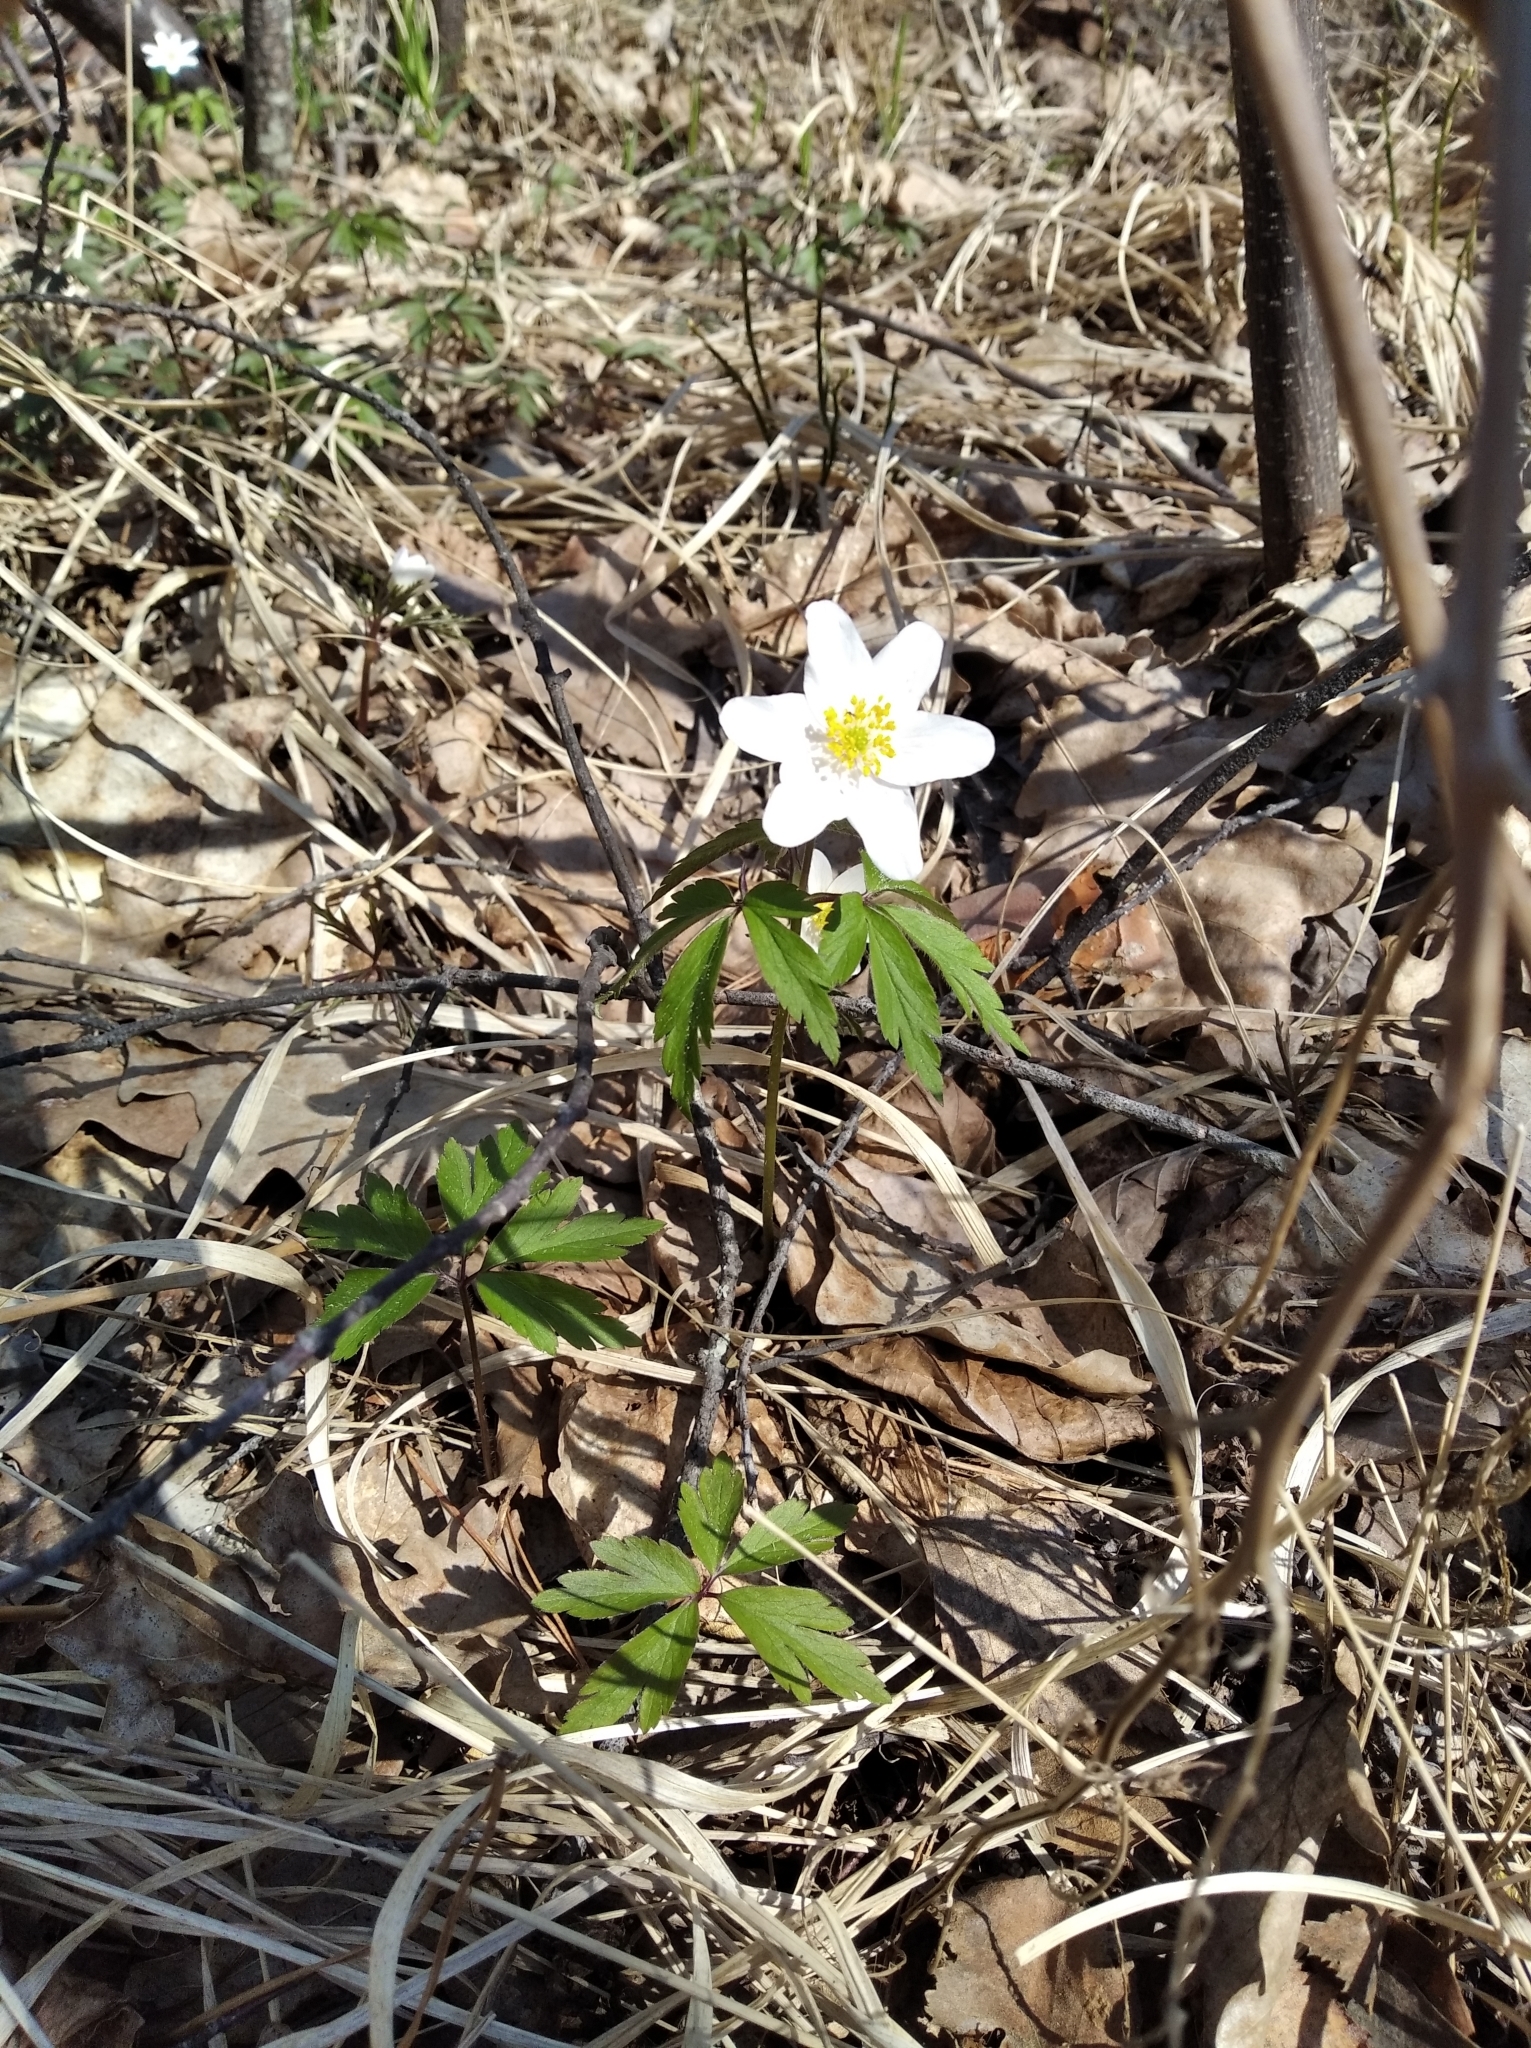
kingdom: Plantae
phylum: Tracheophyta
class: Magnoliopsida
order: Ranunculales
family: Ranunculaceae
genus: Anemone
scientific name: Anemone nemorosa
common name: Wood anemone
